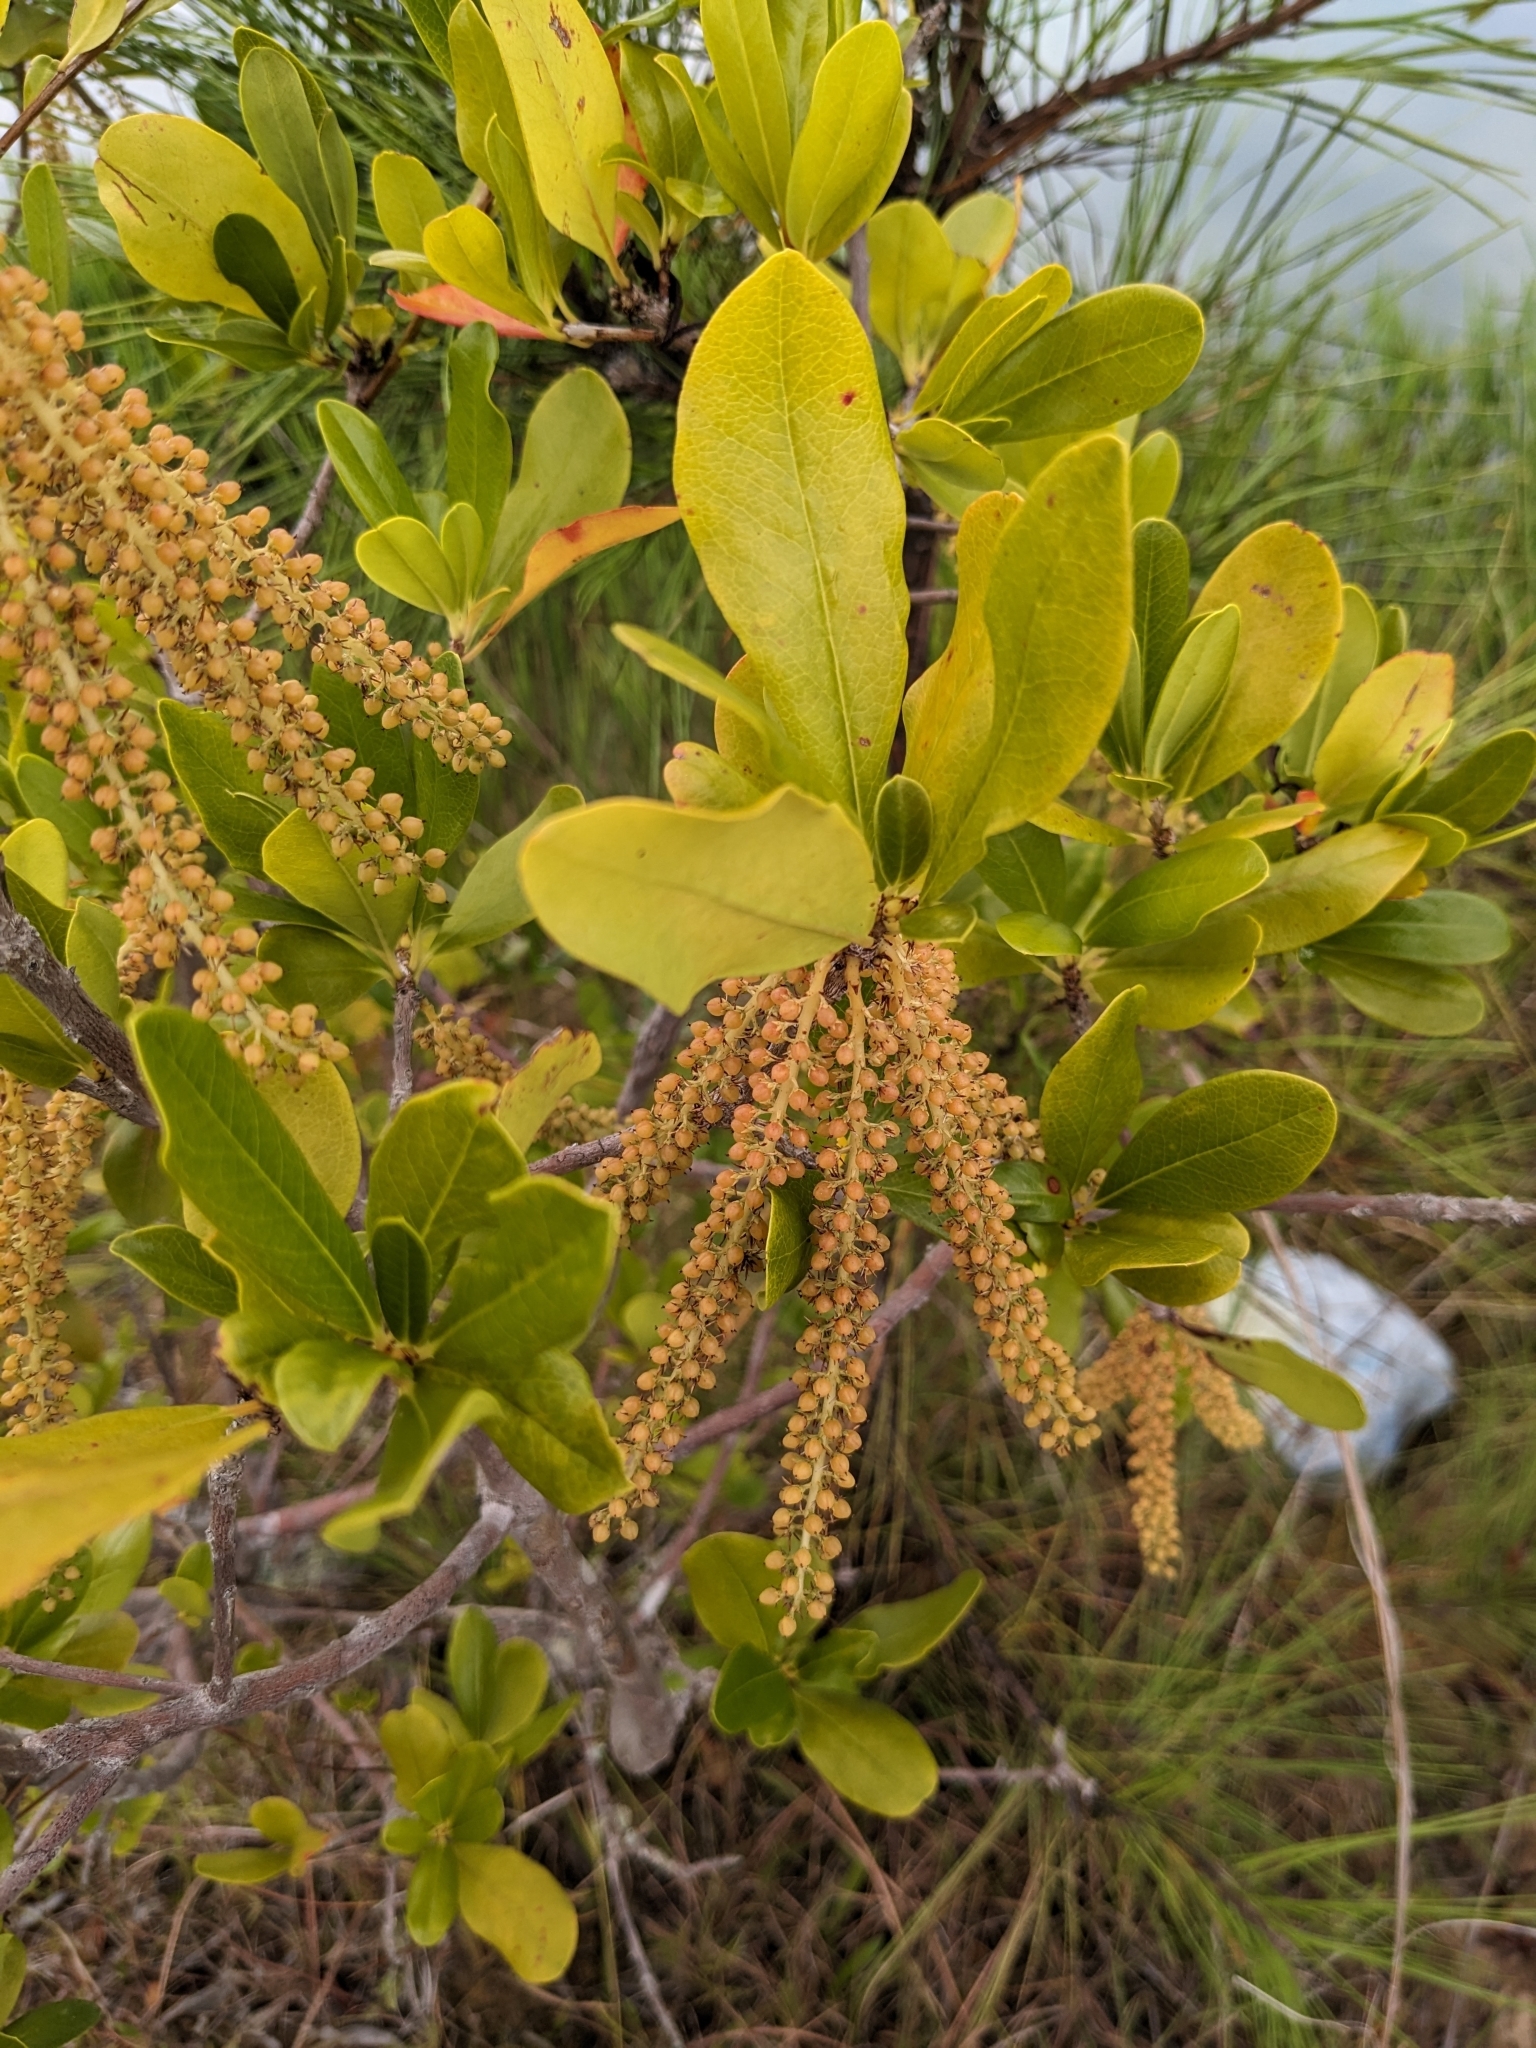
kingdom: Plantae
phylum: Tracheophyta
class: Magnoliopsida
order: Ericales
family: Cyrillaceae
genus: Cyrilla
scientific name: Cyrilla racemiflora
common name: Black titi
